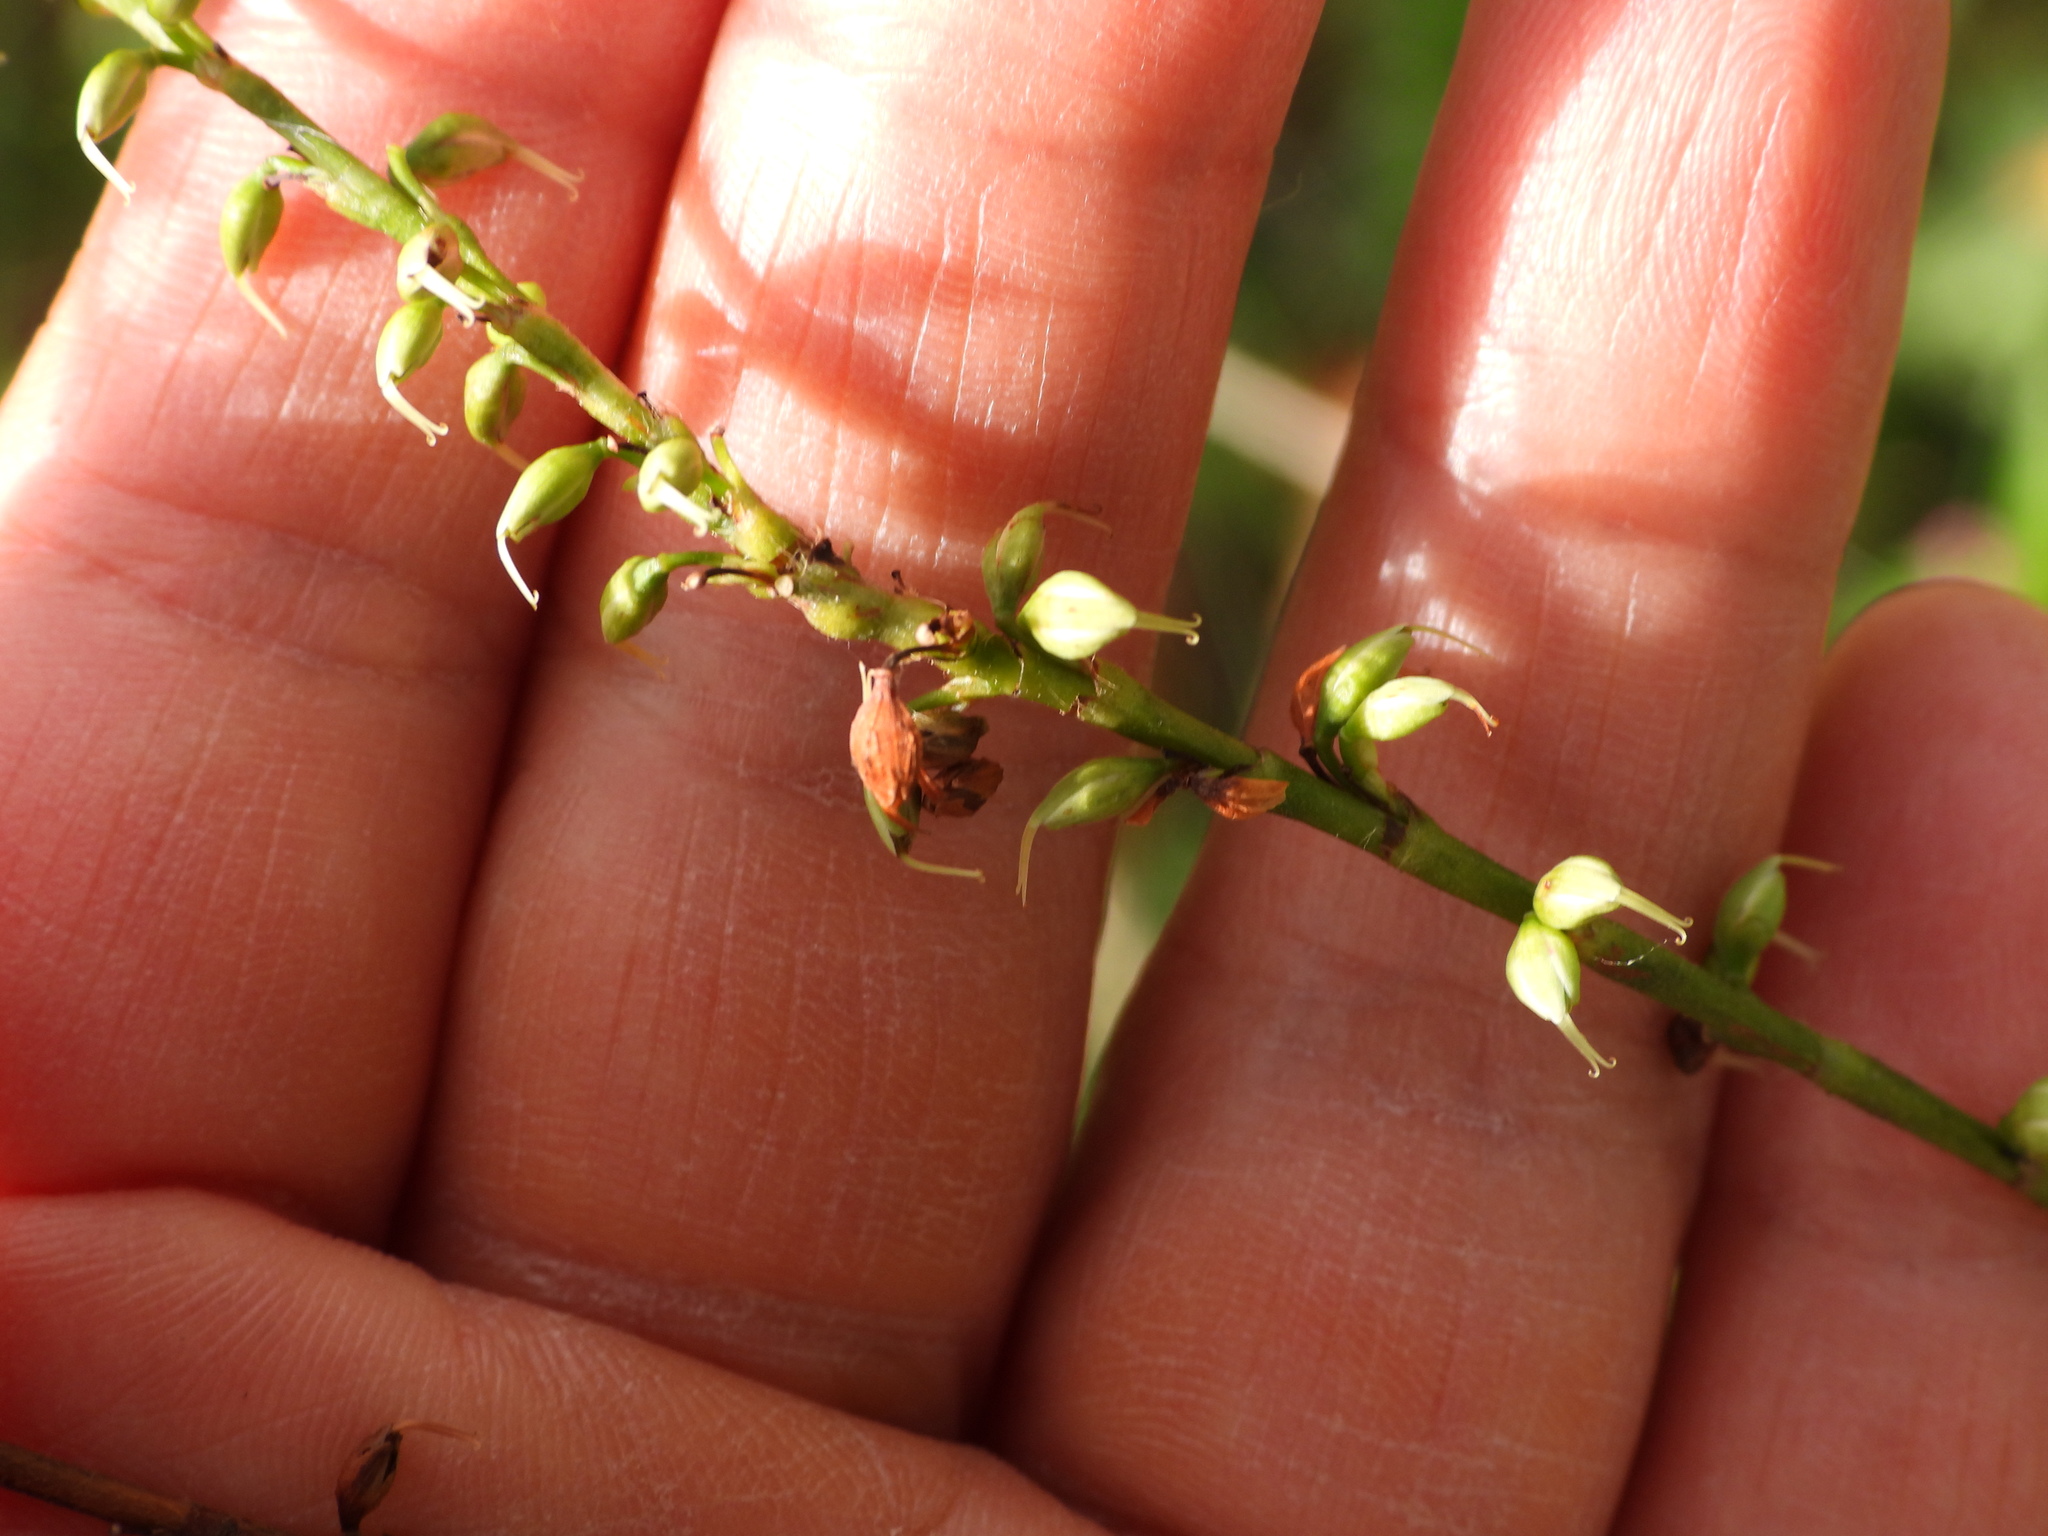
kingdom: Plantae
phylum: Tracheophyta
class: Magnoliopsida
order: Caryophyllales
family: Polygonaceae
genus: Persicaria
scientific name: Persicaria virginiana
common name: Jumpseed
